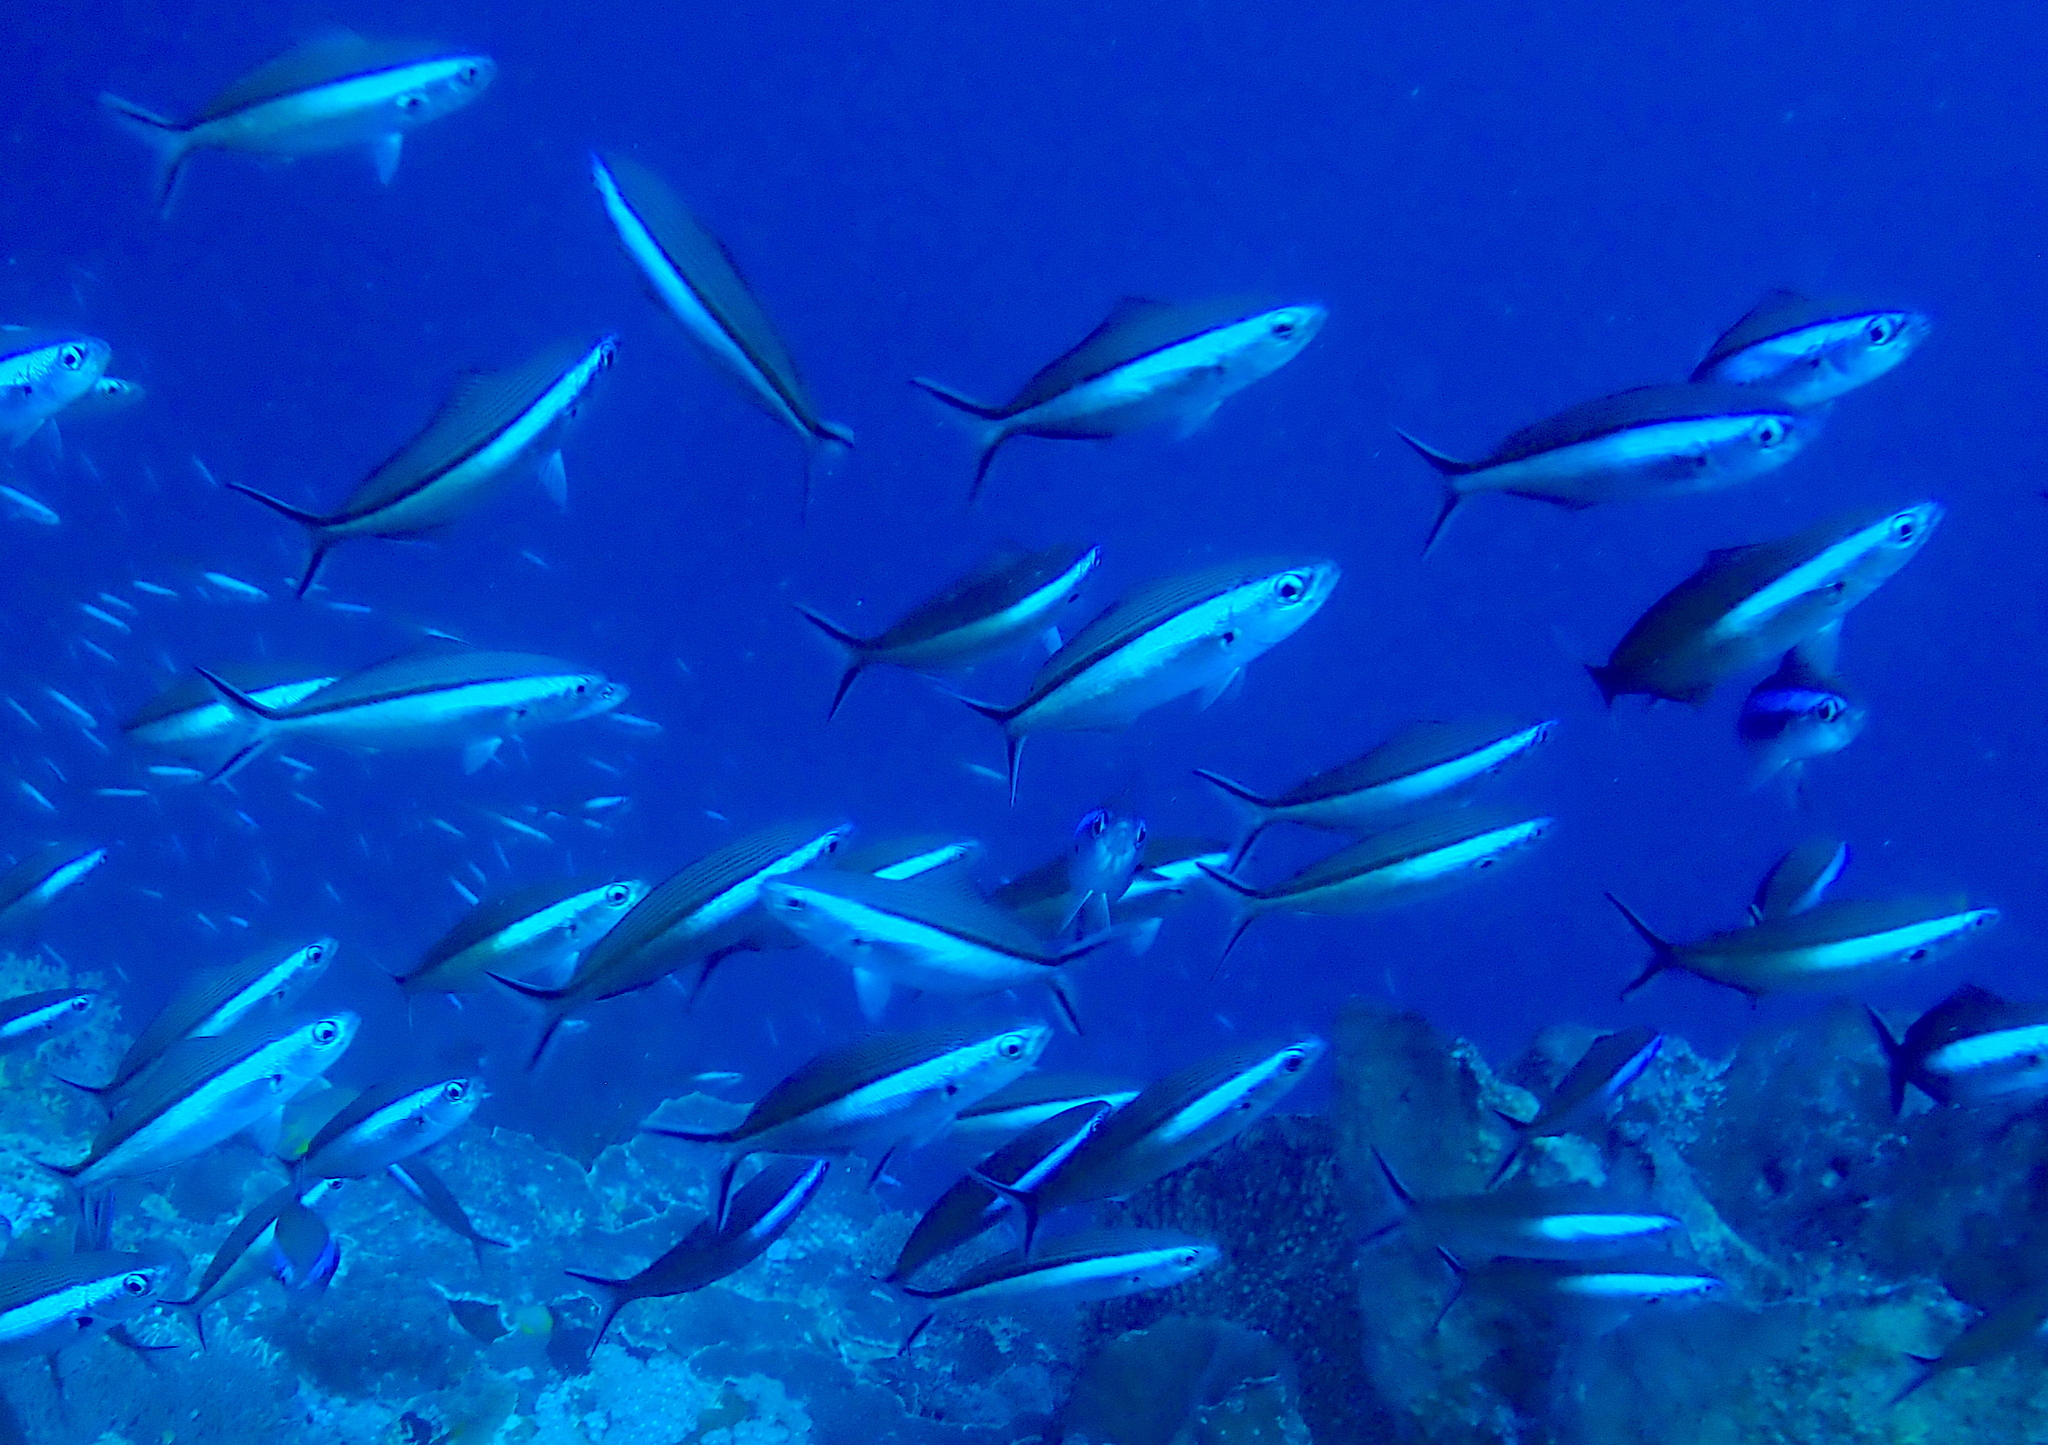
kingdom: Animalia
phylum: Chordata
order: Perciformes
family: Caesionidae
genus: Pterocaesio
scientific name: Pterocaesio tile
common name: Dark-banded fusilier
